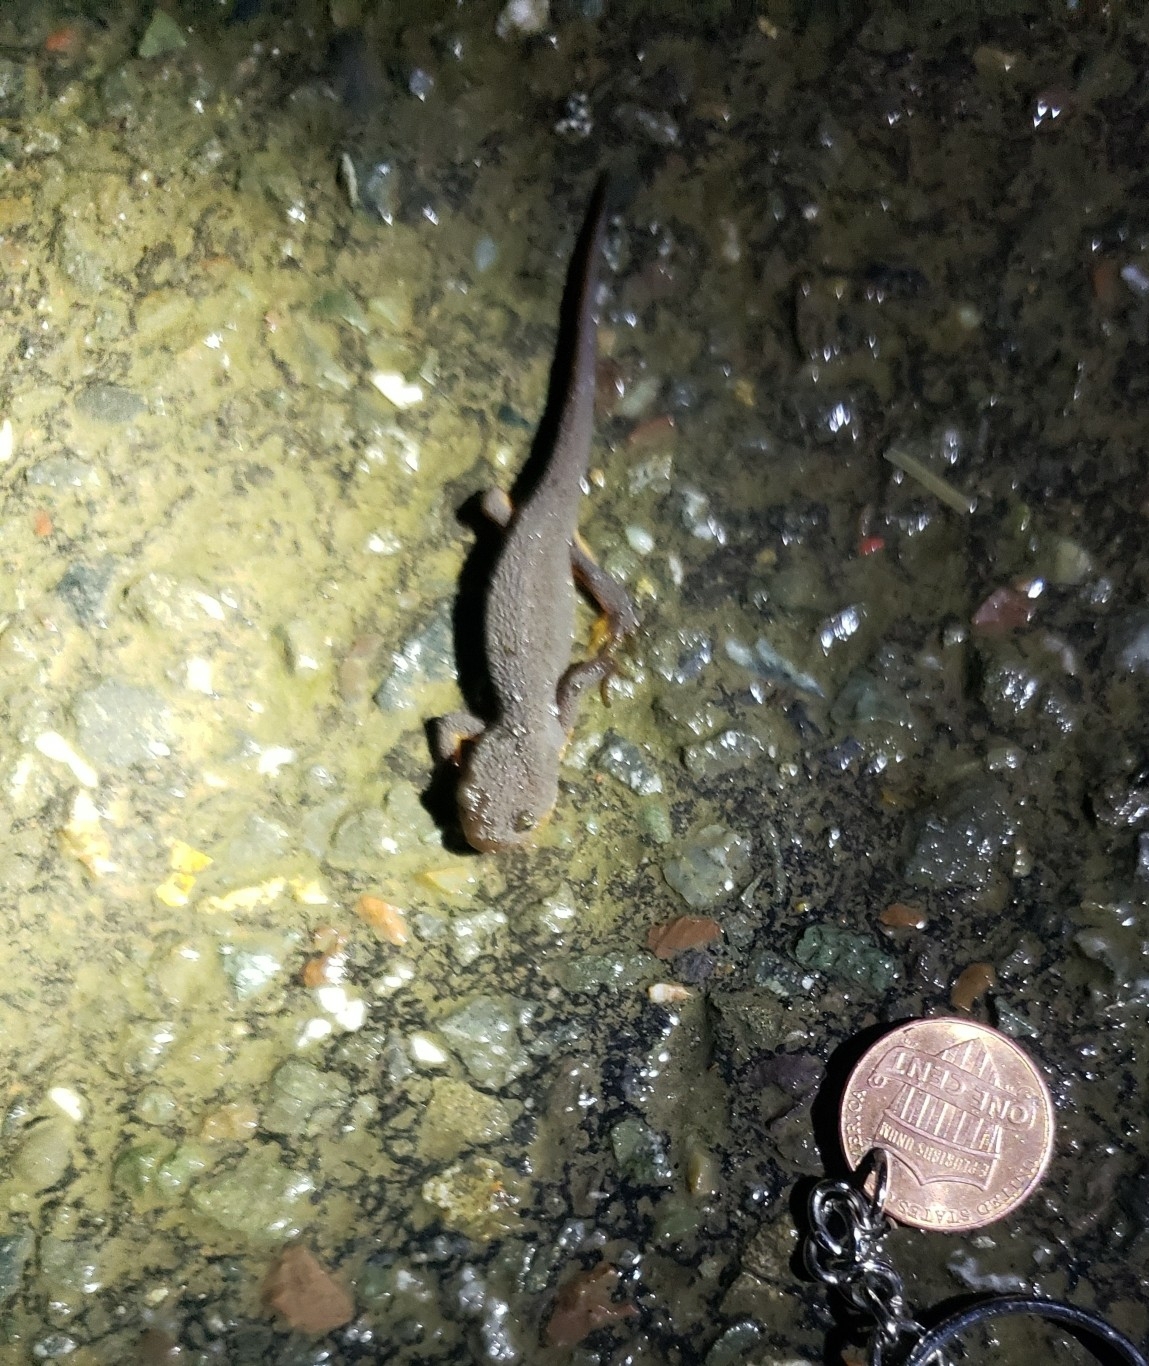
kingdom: Animalia
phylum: Chordata
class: Amphibia
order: Caudata
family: Salamandridae
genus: Taricha
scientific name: Taricha granulosa
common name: Roughskin newt
